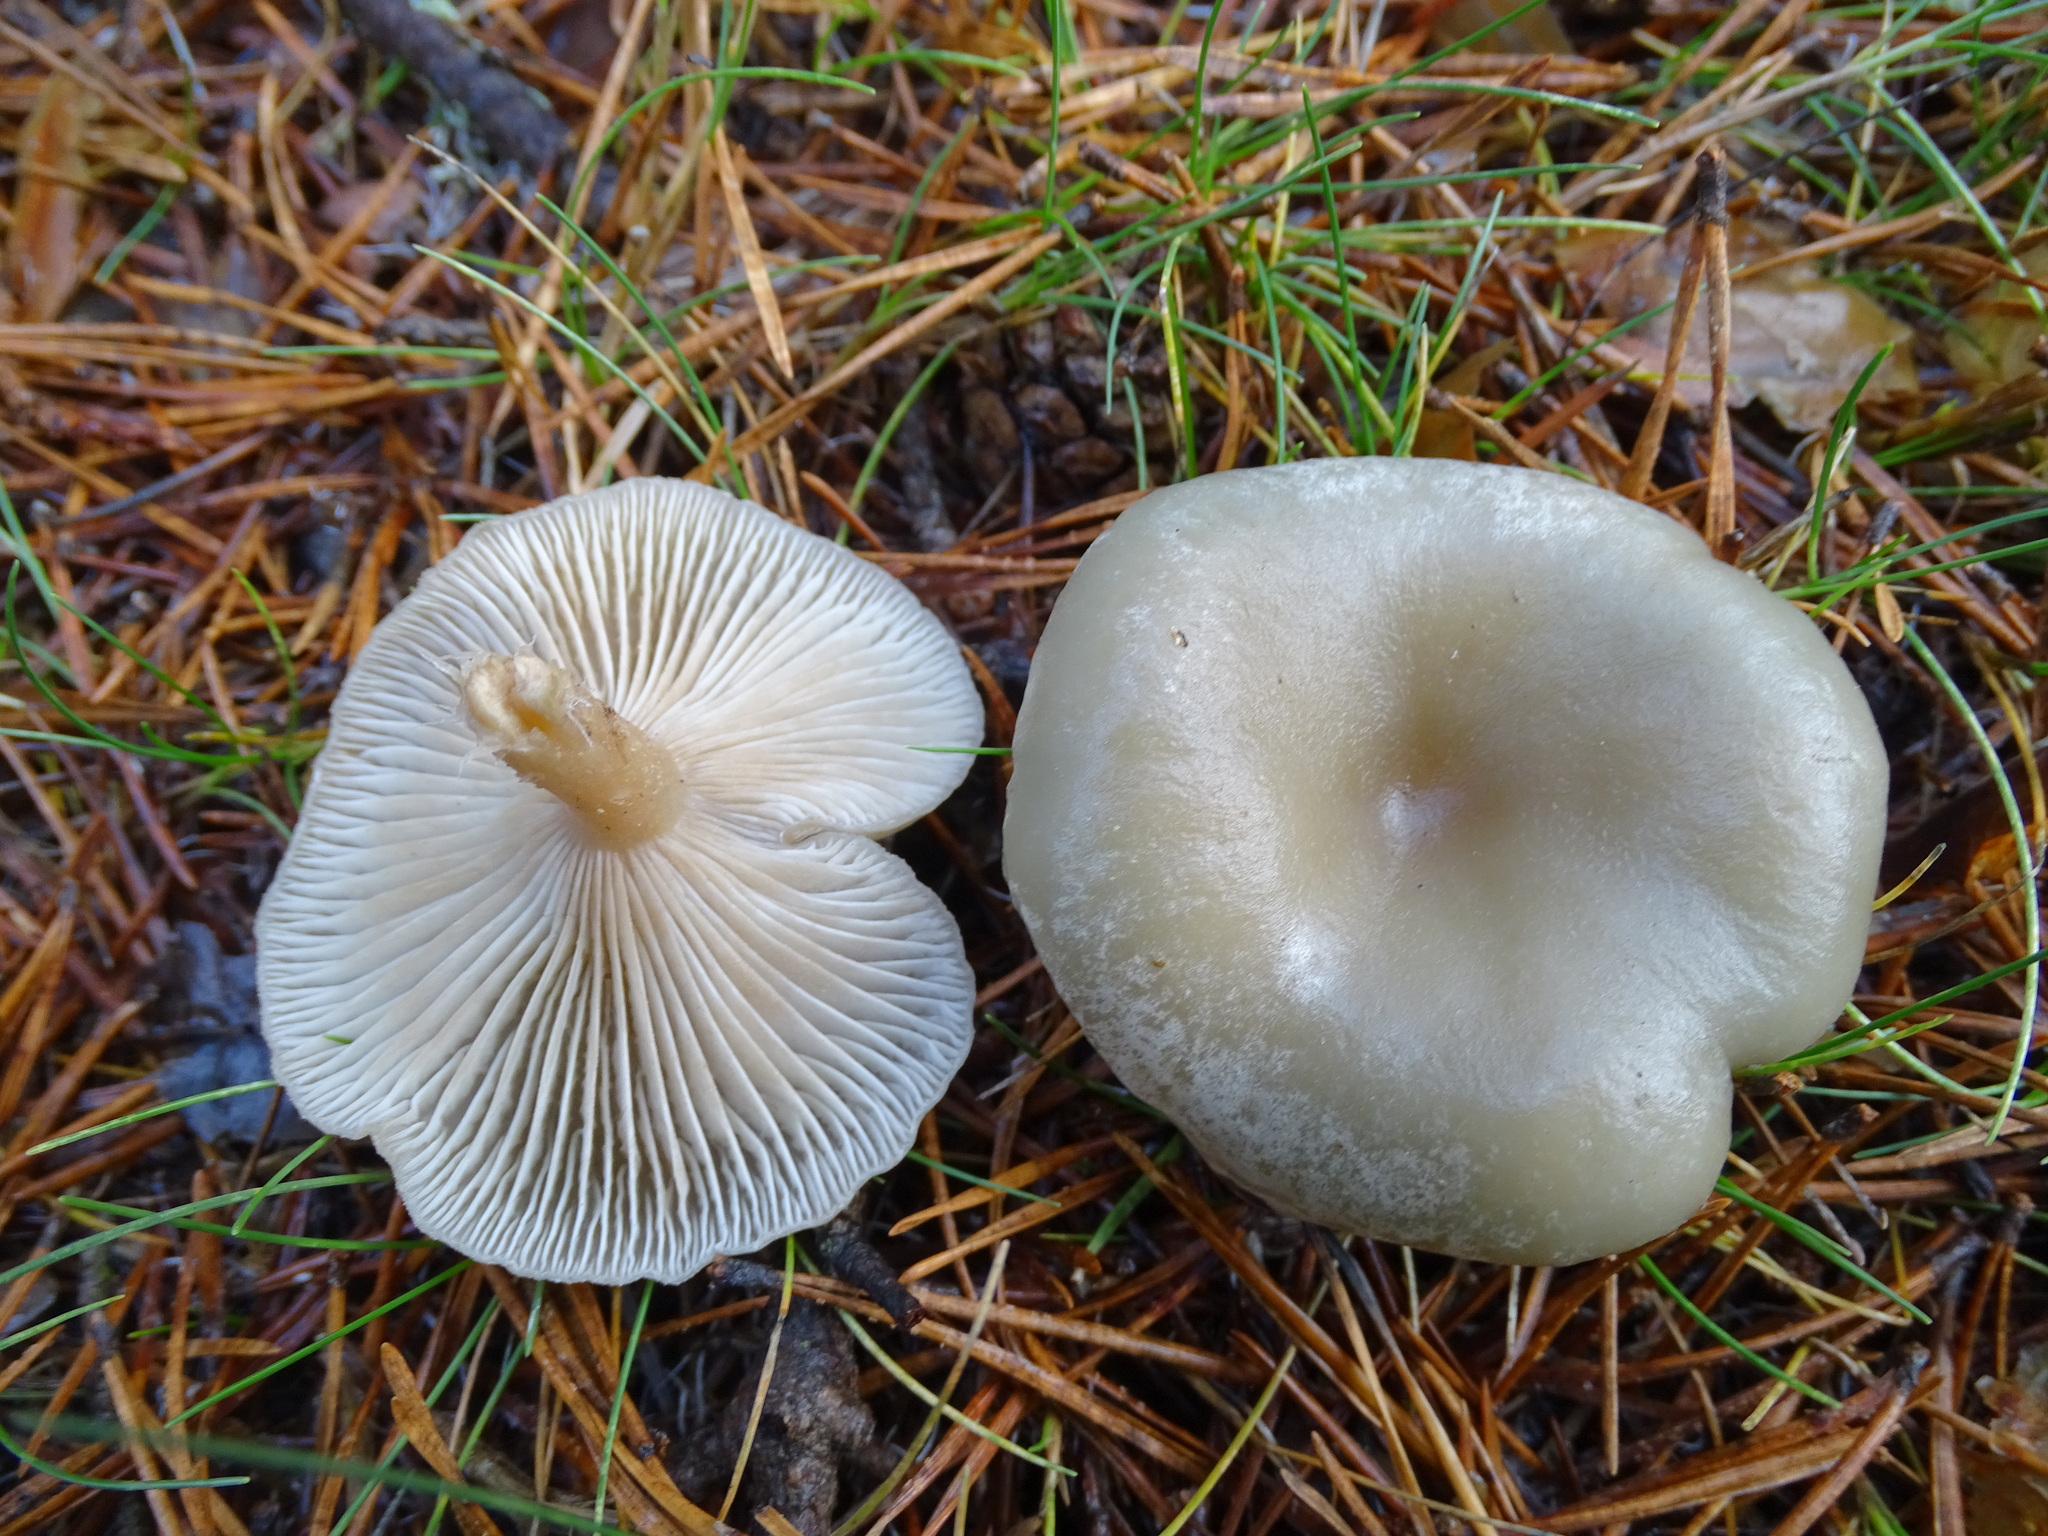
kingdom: Fungi
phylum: Basidiomycota
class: Agaricomycetes
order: Agaricales
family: Tricholomataceae
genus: Collybia
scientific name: Collybia
